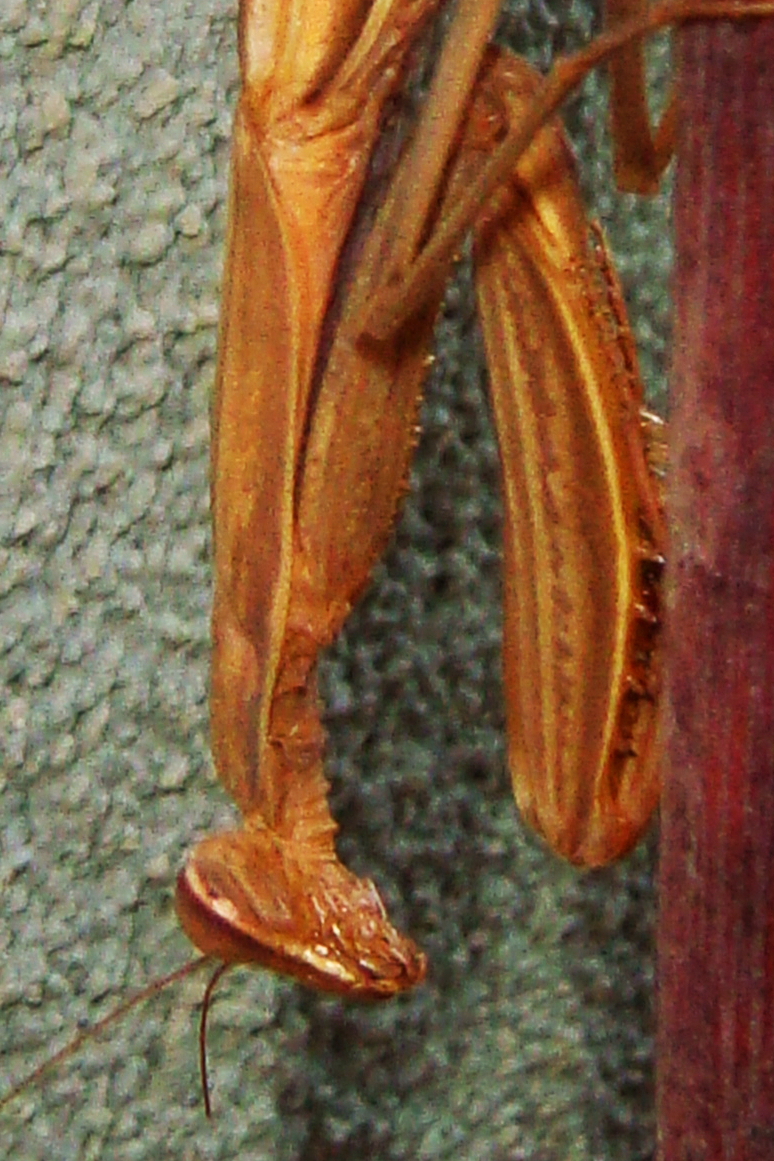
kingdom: Animalia
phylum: Arthropoda
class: Insecta
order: Mantodea
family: Mantidae
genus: Mantis
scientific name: Mantis religiosa
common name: Praying mantis
